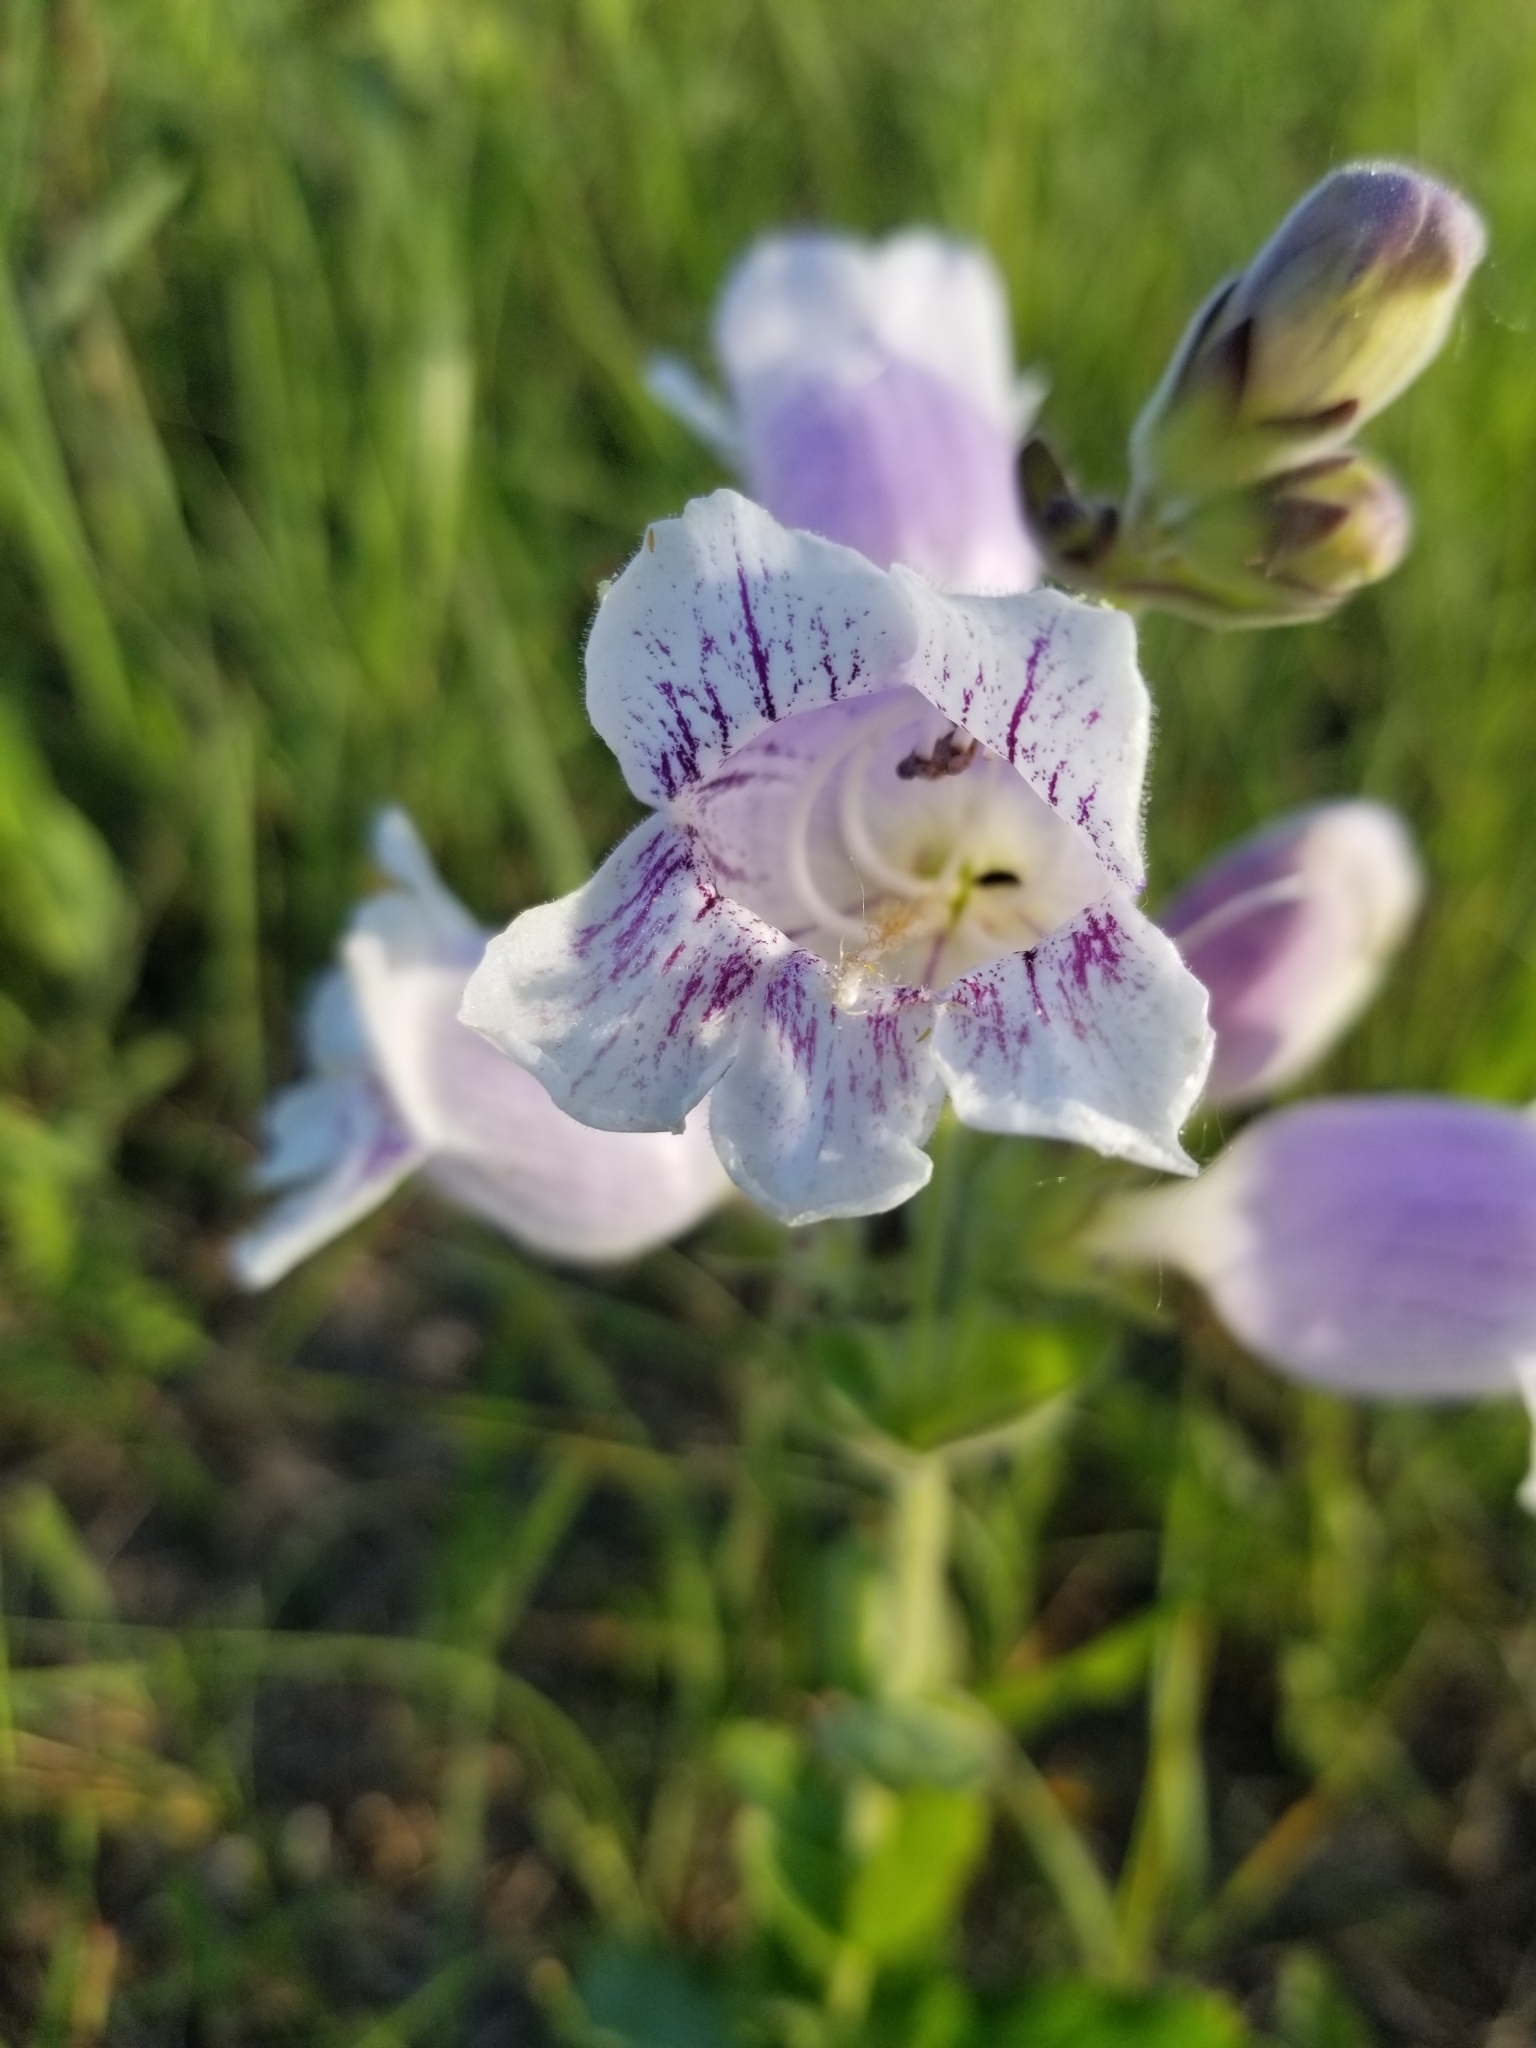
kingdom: Plantae
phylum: Tracheophyta
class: Magnoliopsida
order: Lamiales
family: Plantaginaceae
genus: Penstemon
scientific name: Penstemon cobaea
